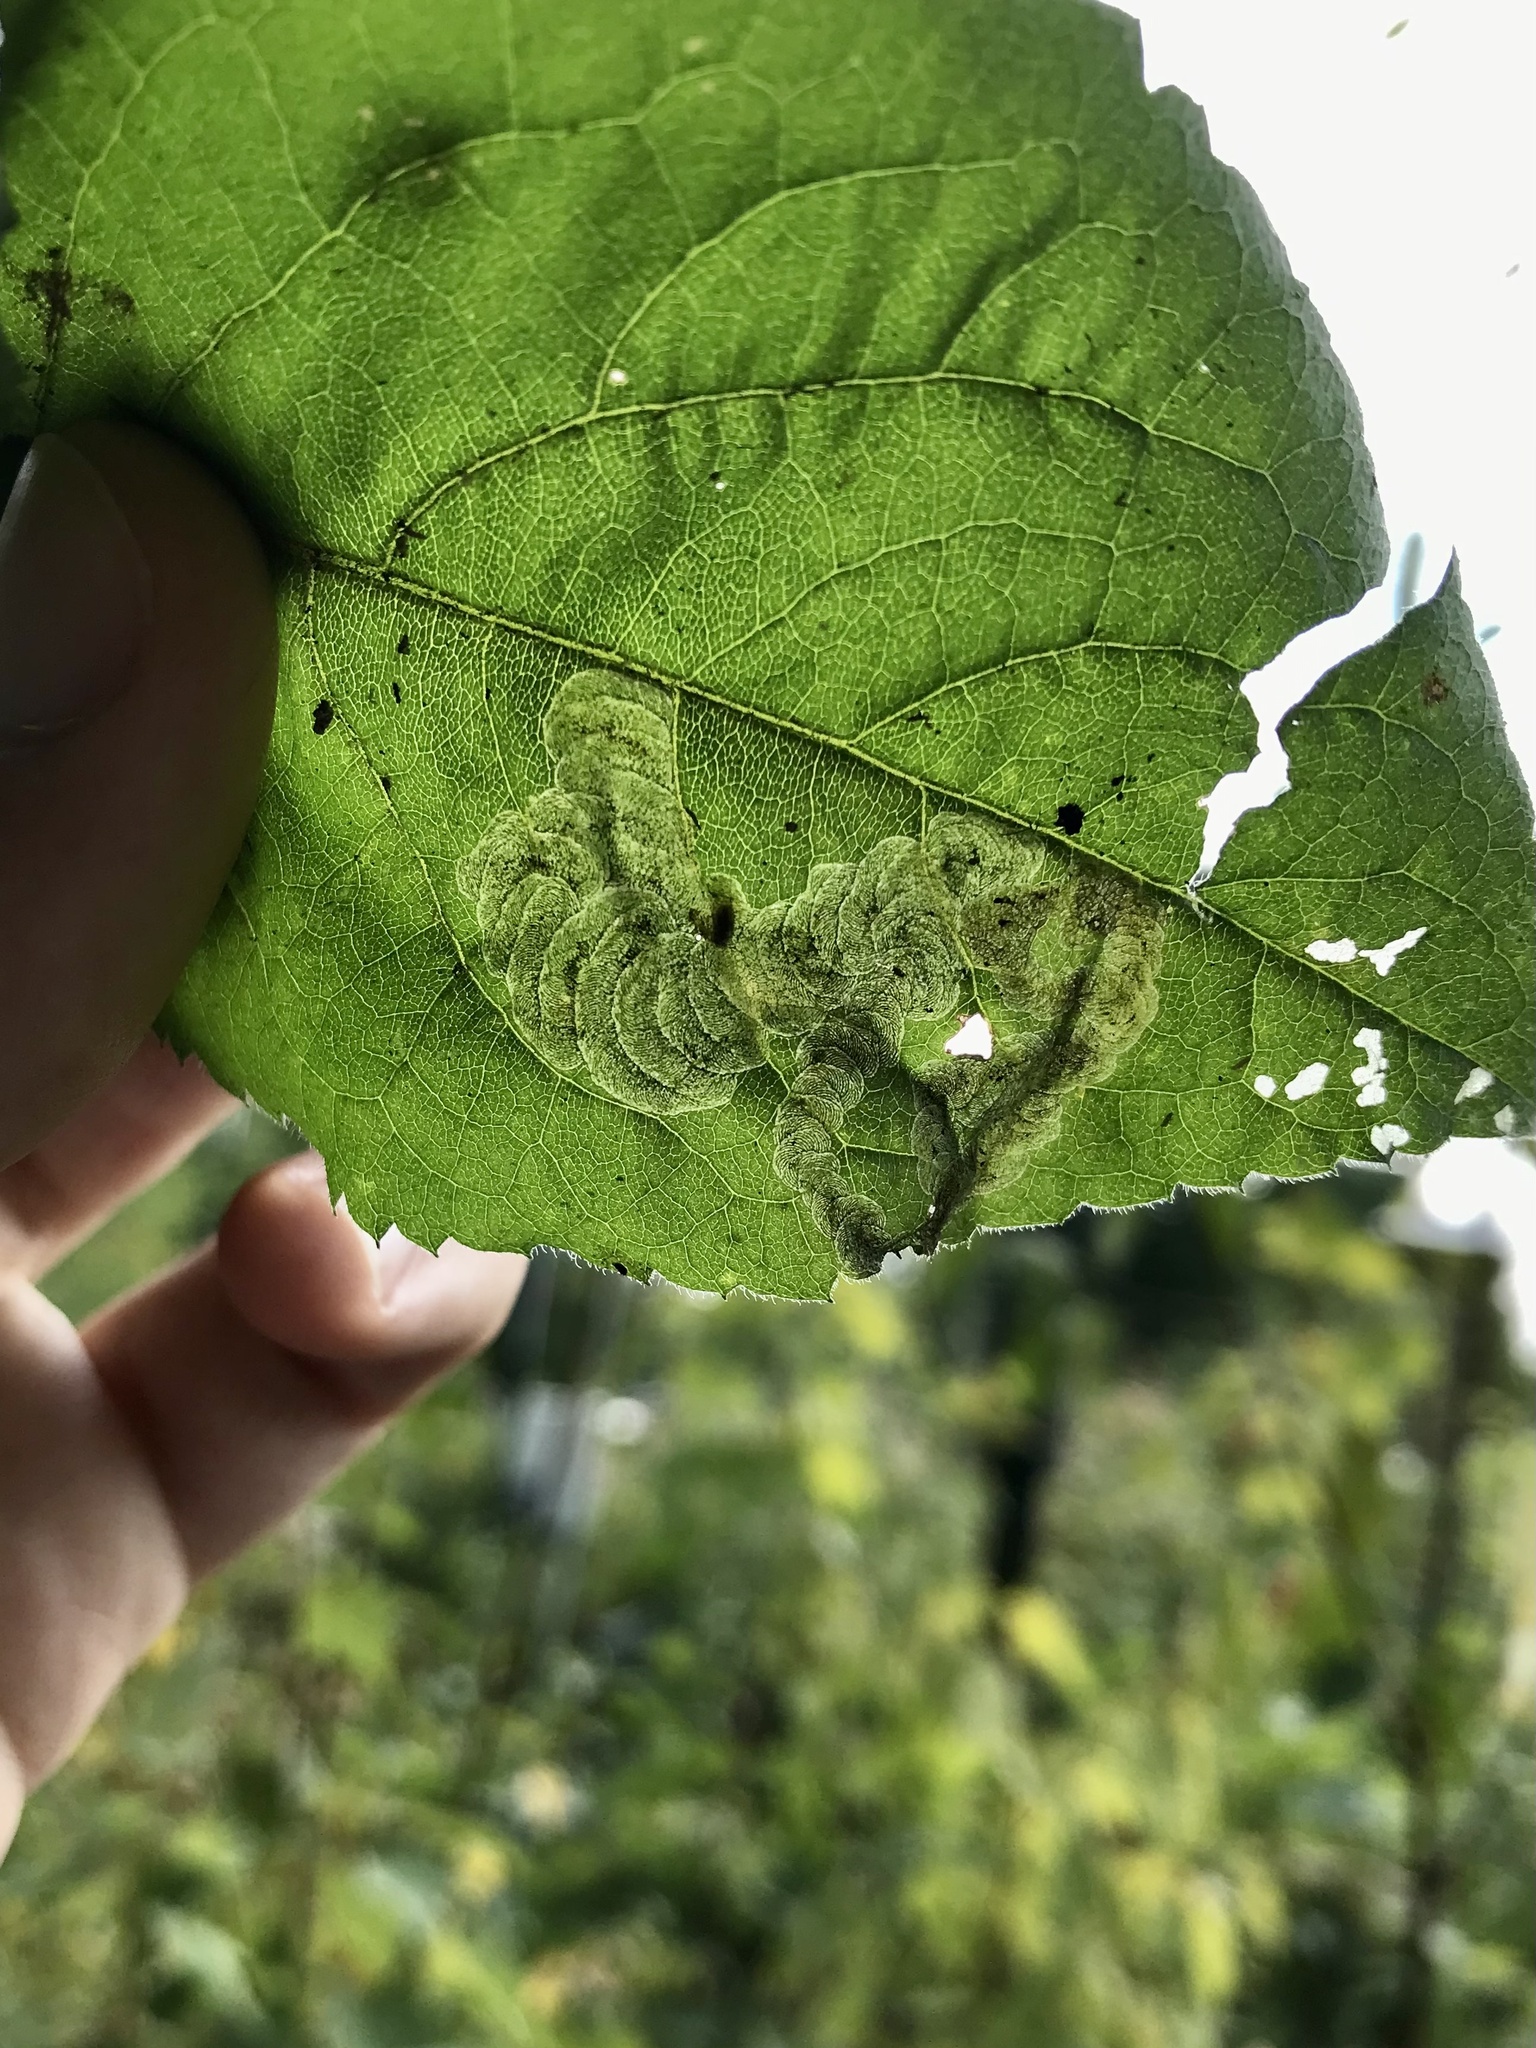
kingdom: Animalia
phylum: Arthropoda
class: Insecta
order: Diptera
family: Agromyzidae
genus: Liriomyza
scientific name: Liriomyza limopsis
